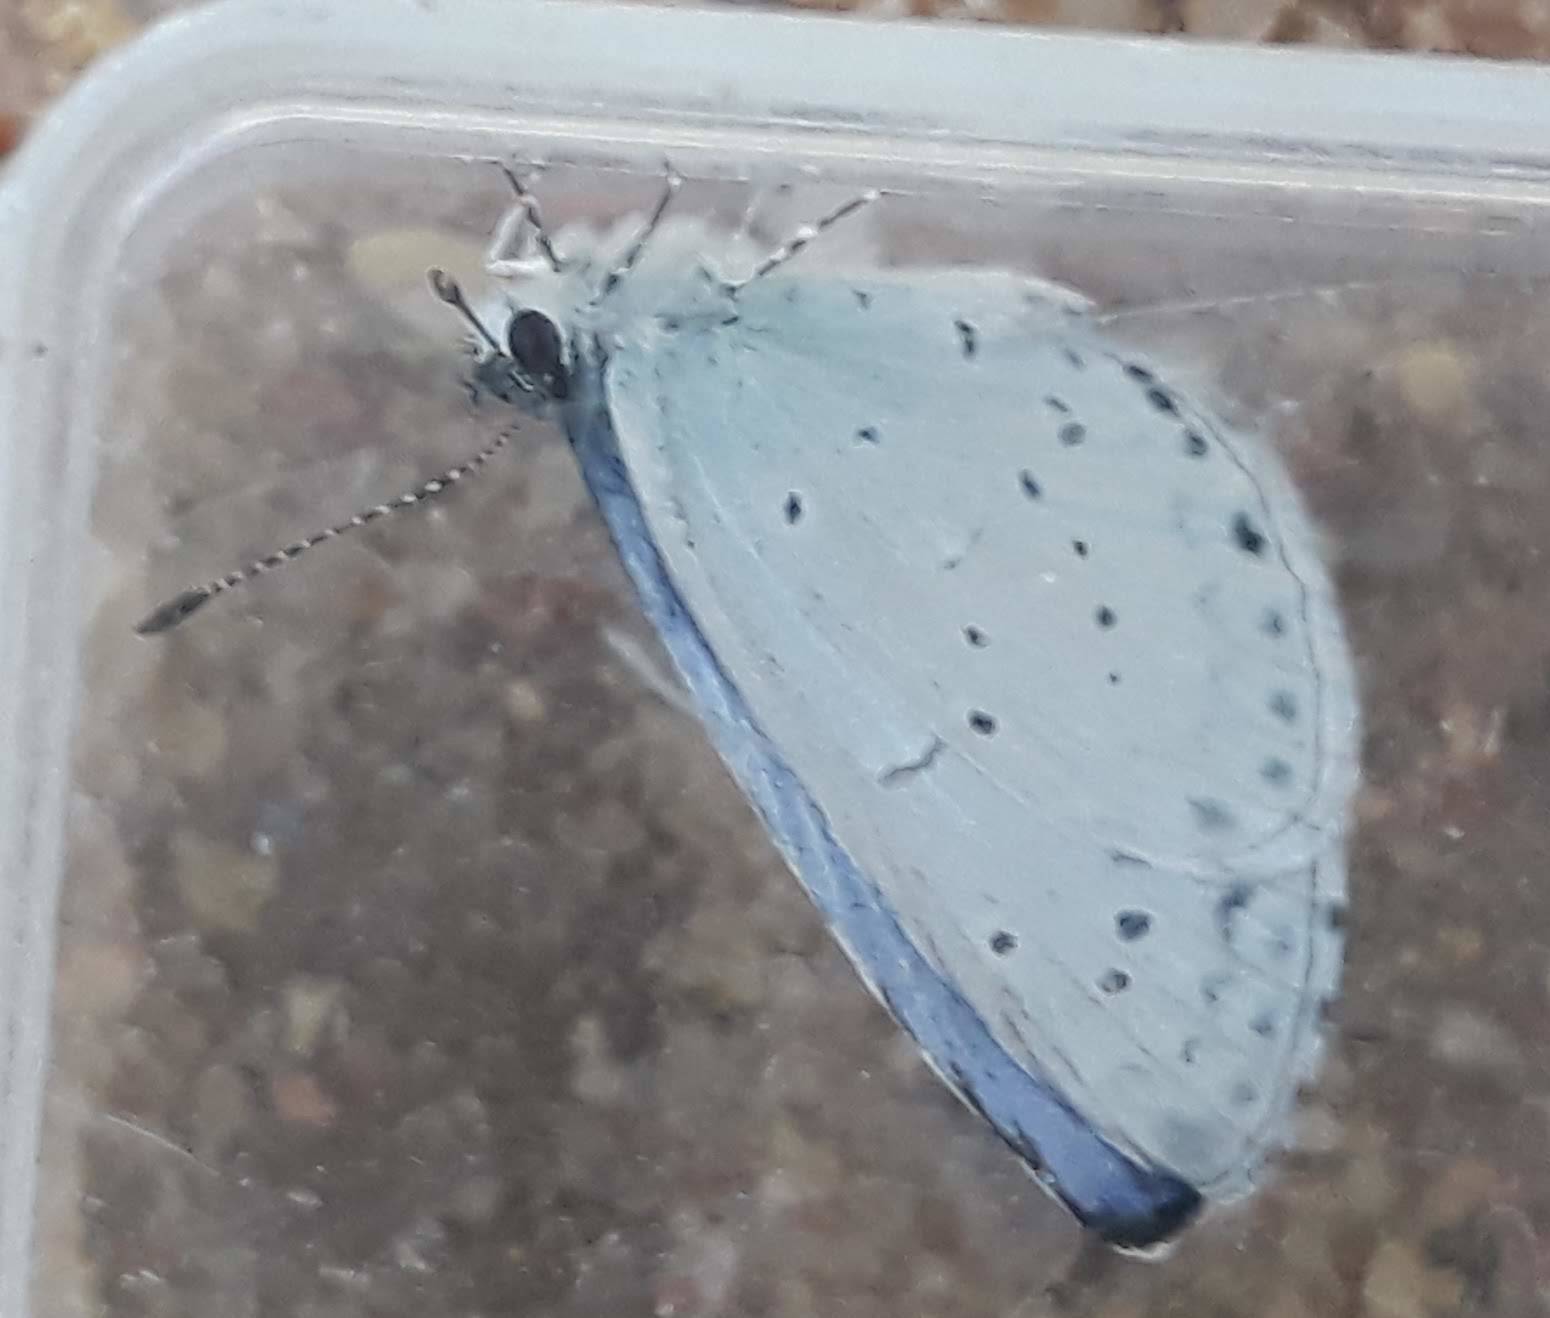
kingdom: Animalia
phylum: Arthropoda
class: Insecta
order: Lepidoptera
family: Lycaenidae
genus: Celastrina
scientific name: Celastrina argiolus
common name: Holly blue
